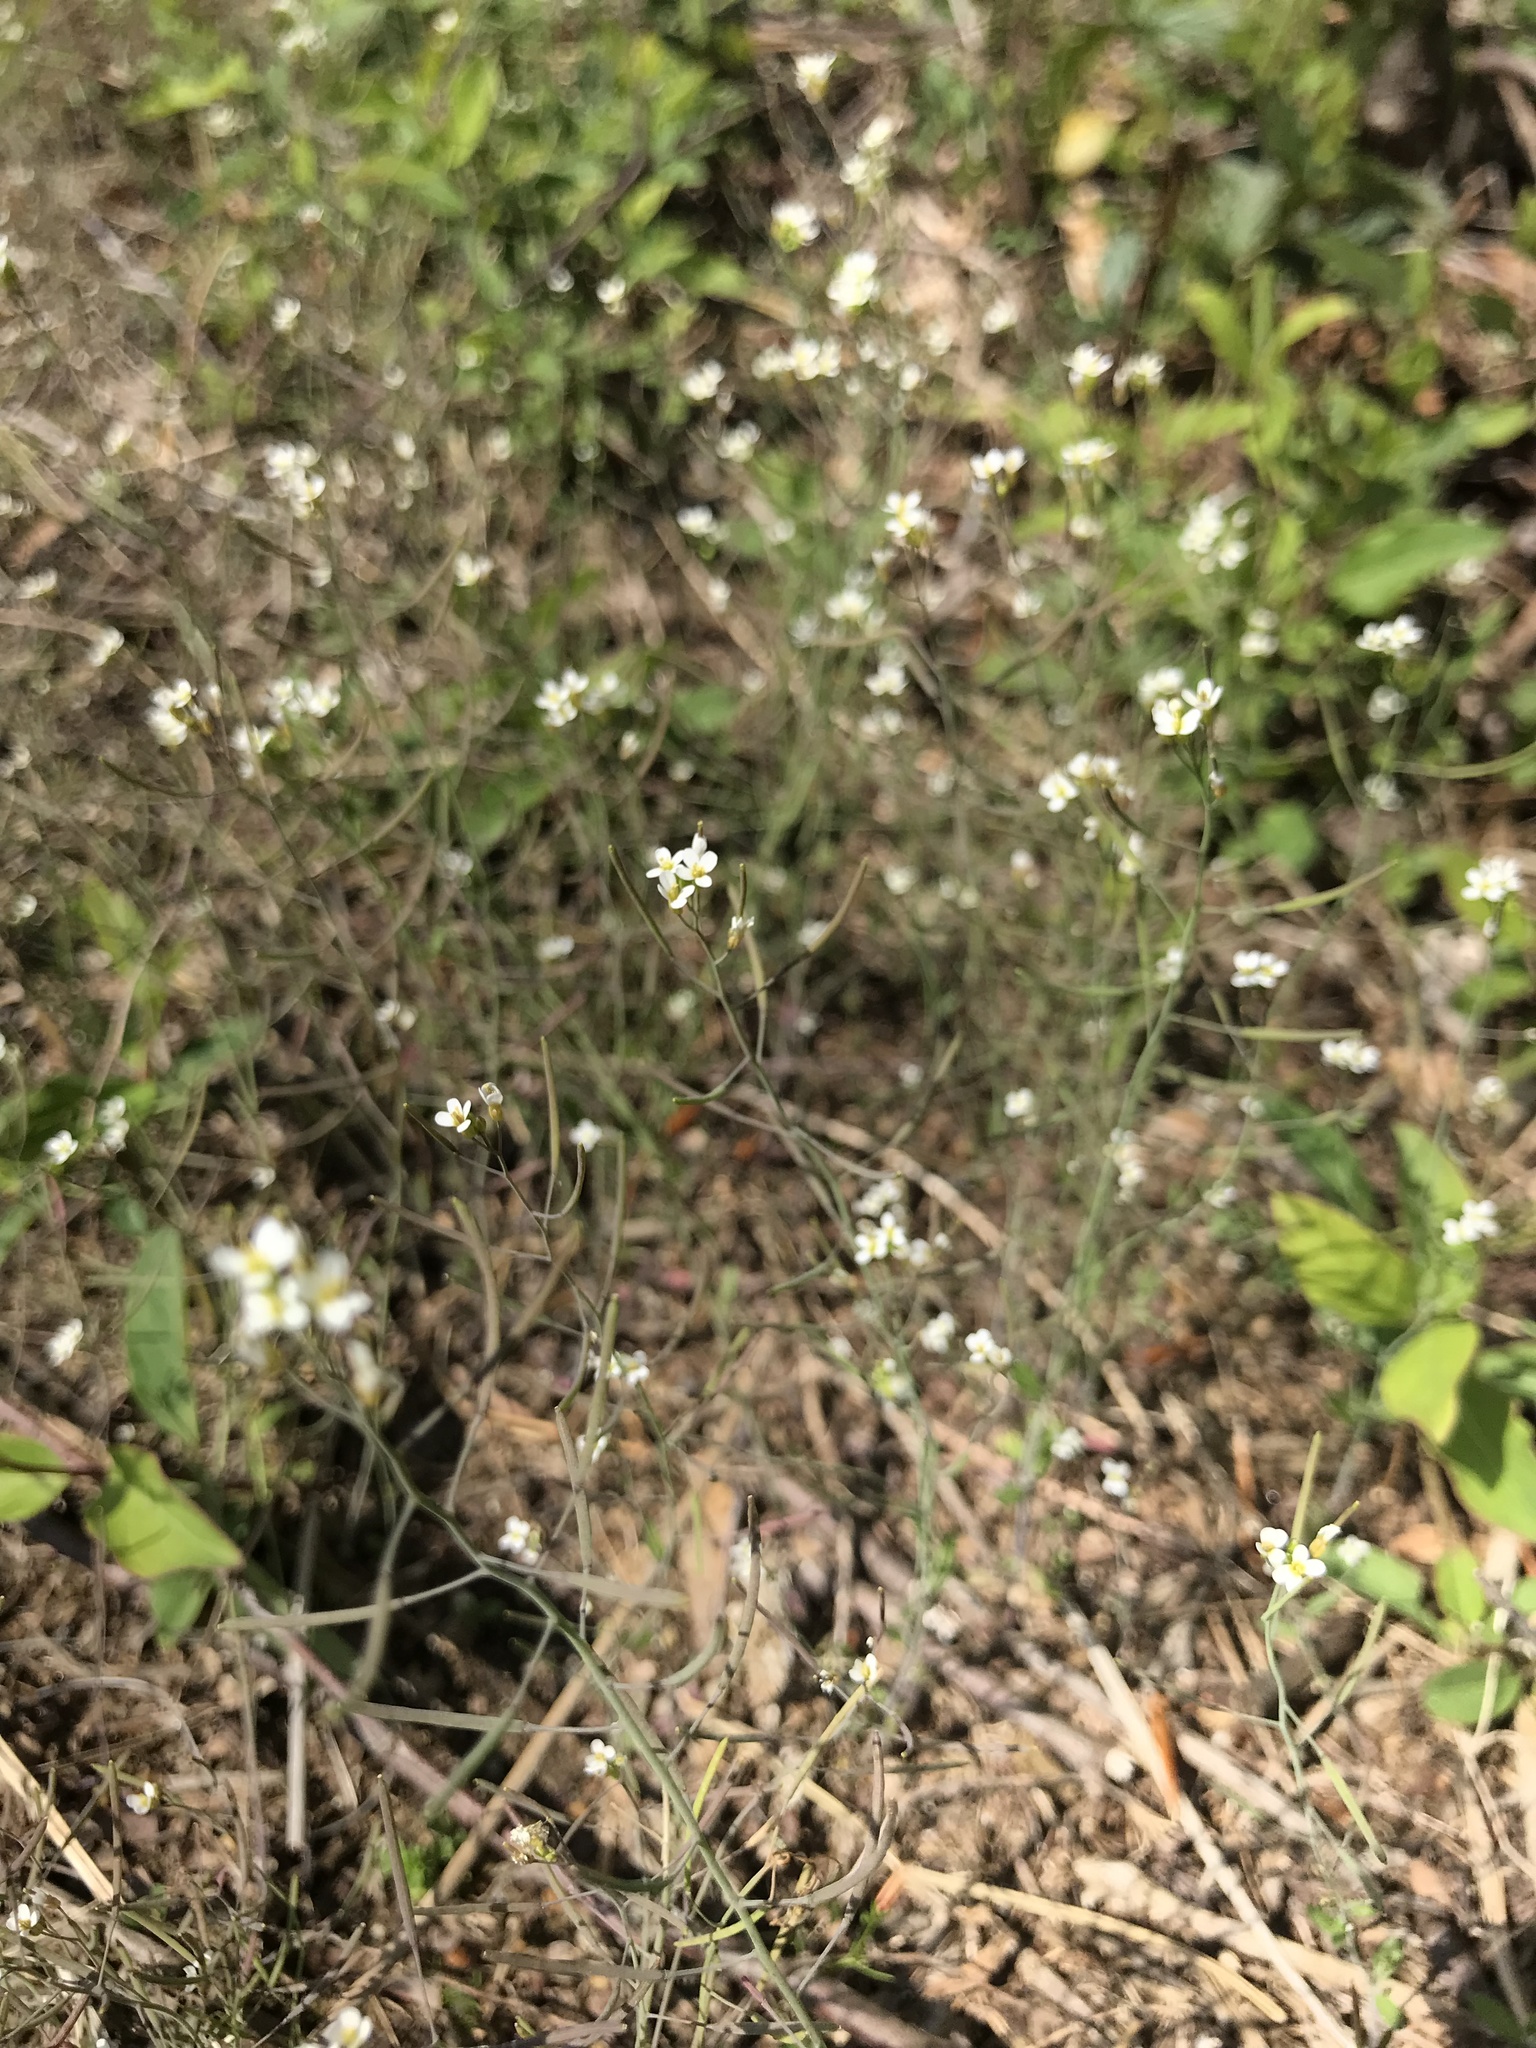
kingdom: Plantae
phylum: Tracheophyta
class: Magnoliopsida
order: Brassicales
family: Brassicaceae
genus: Arabidopsis
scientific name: Arabidopsis thaliana
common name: Thale cress
